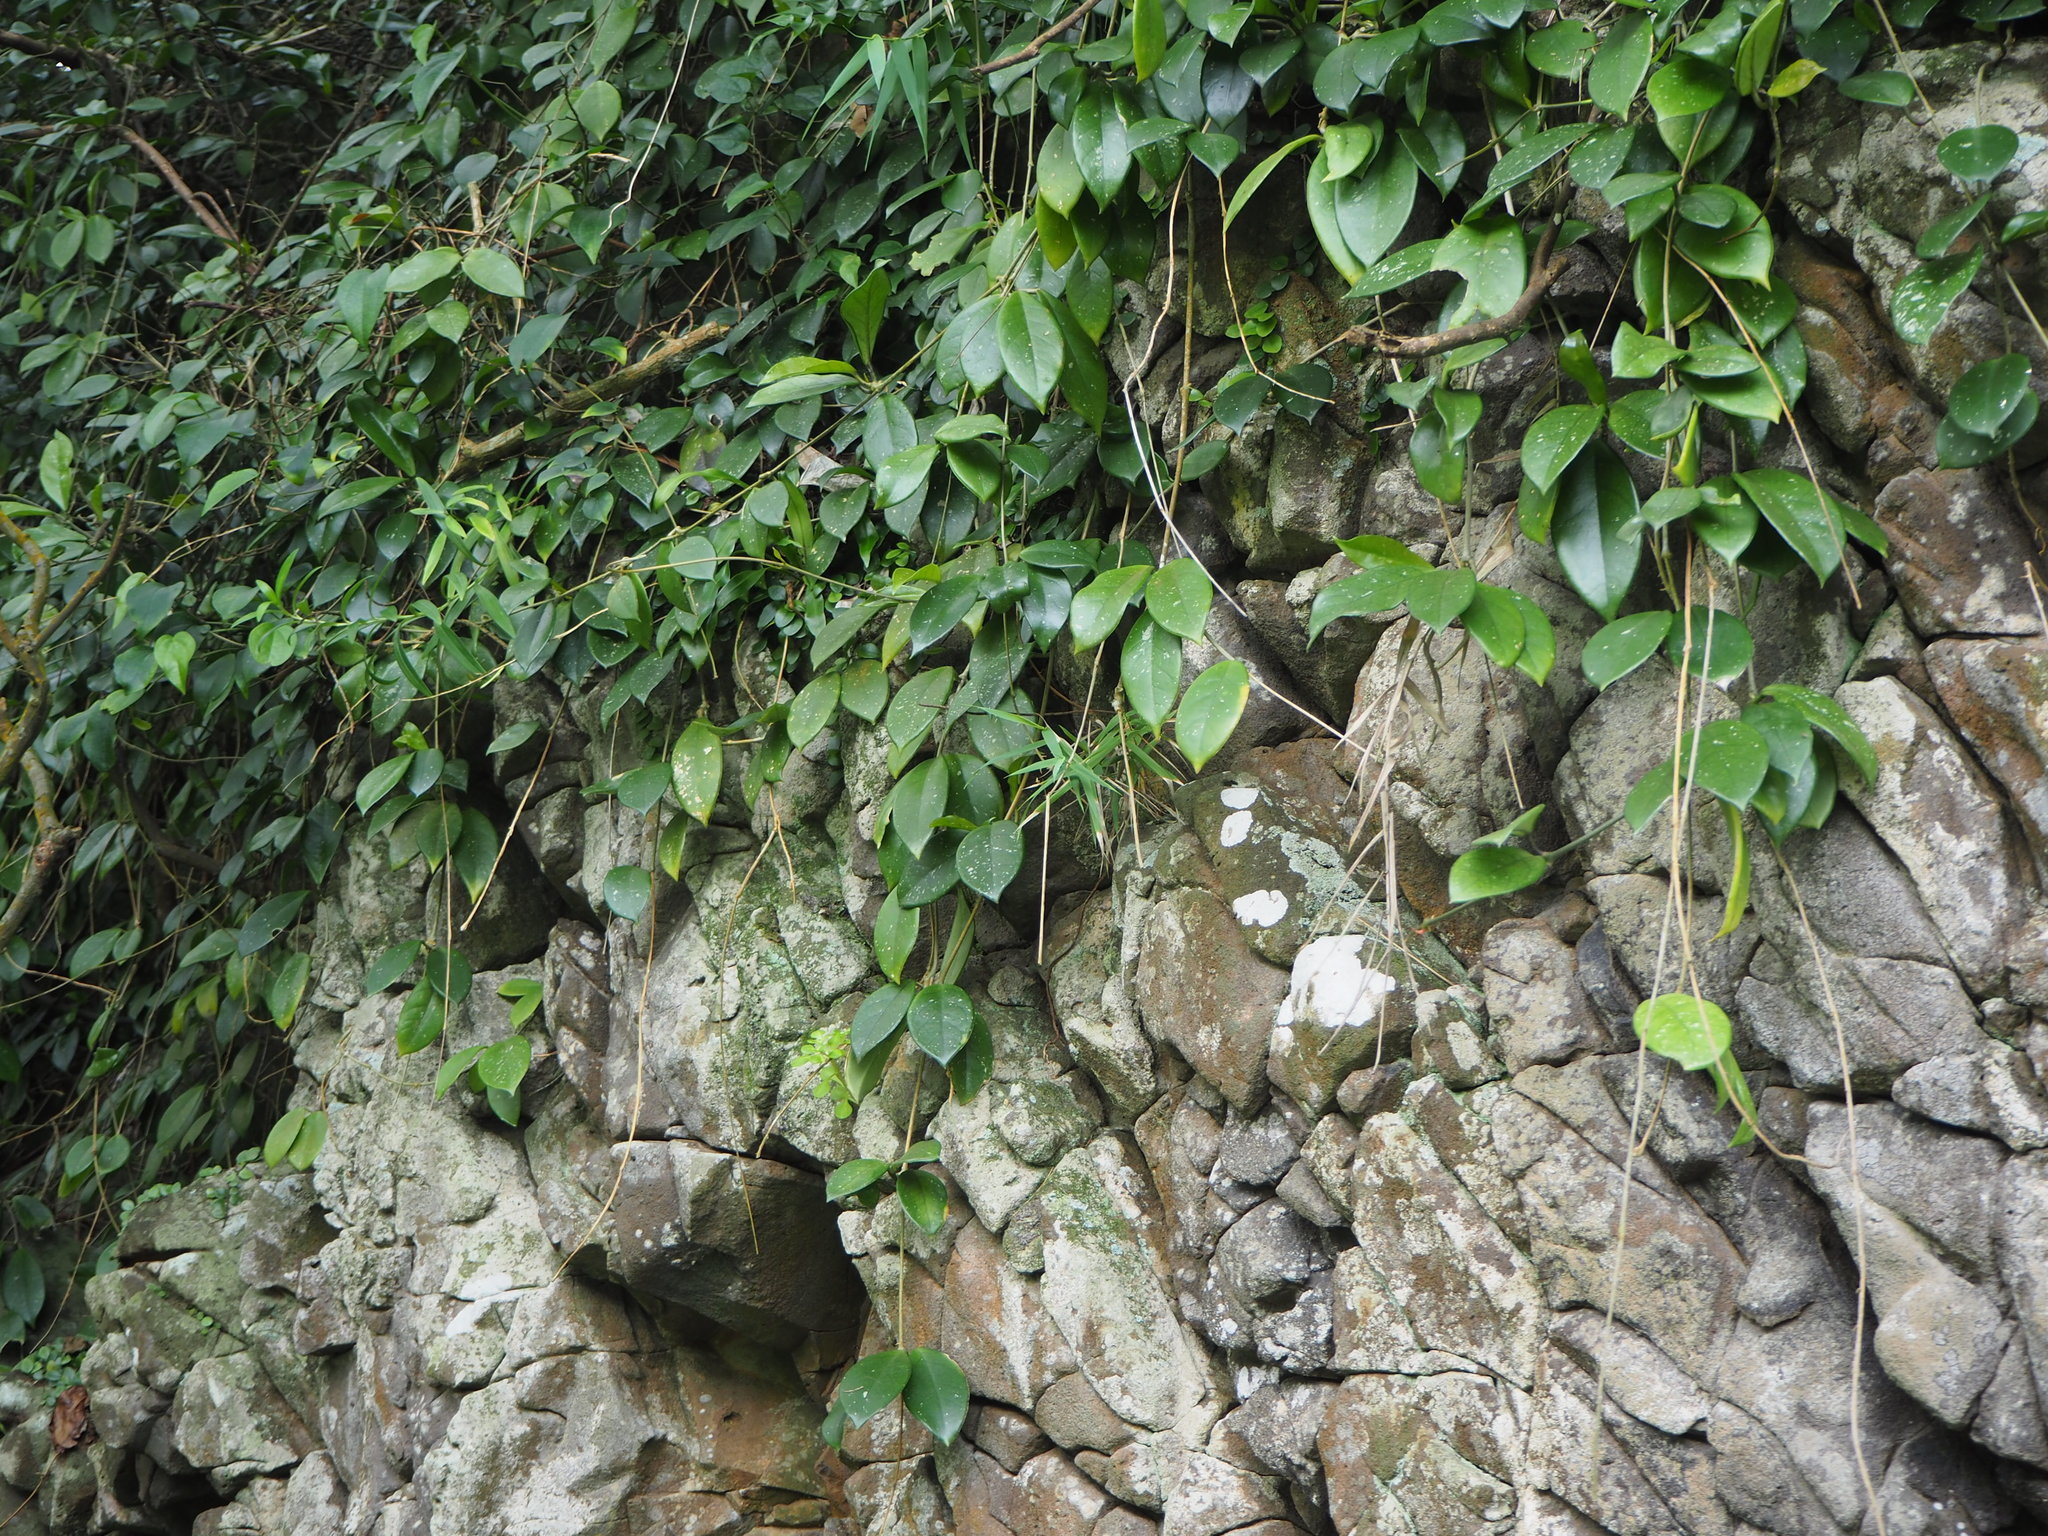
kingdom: Plantae
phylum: Tracheophyta
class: Magnoliopsida
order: Gentianales
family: Apocynaceae
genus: Hoya
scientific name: Hoya carnosa
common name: Honeyplant
